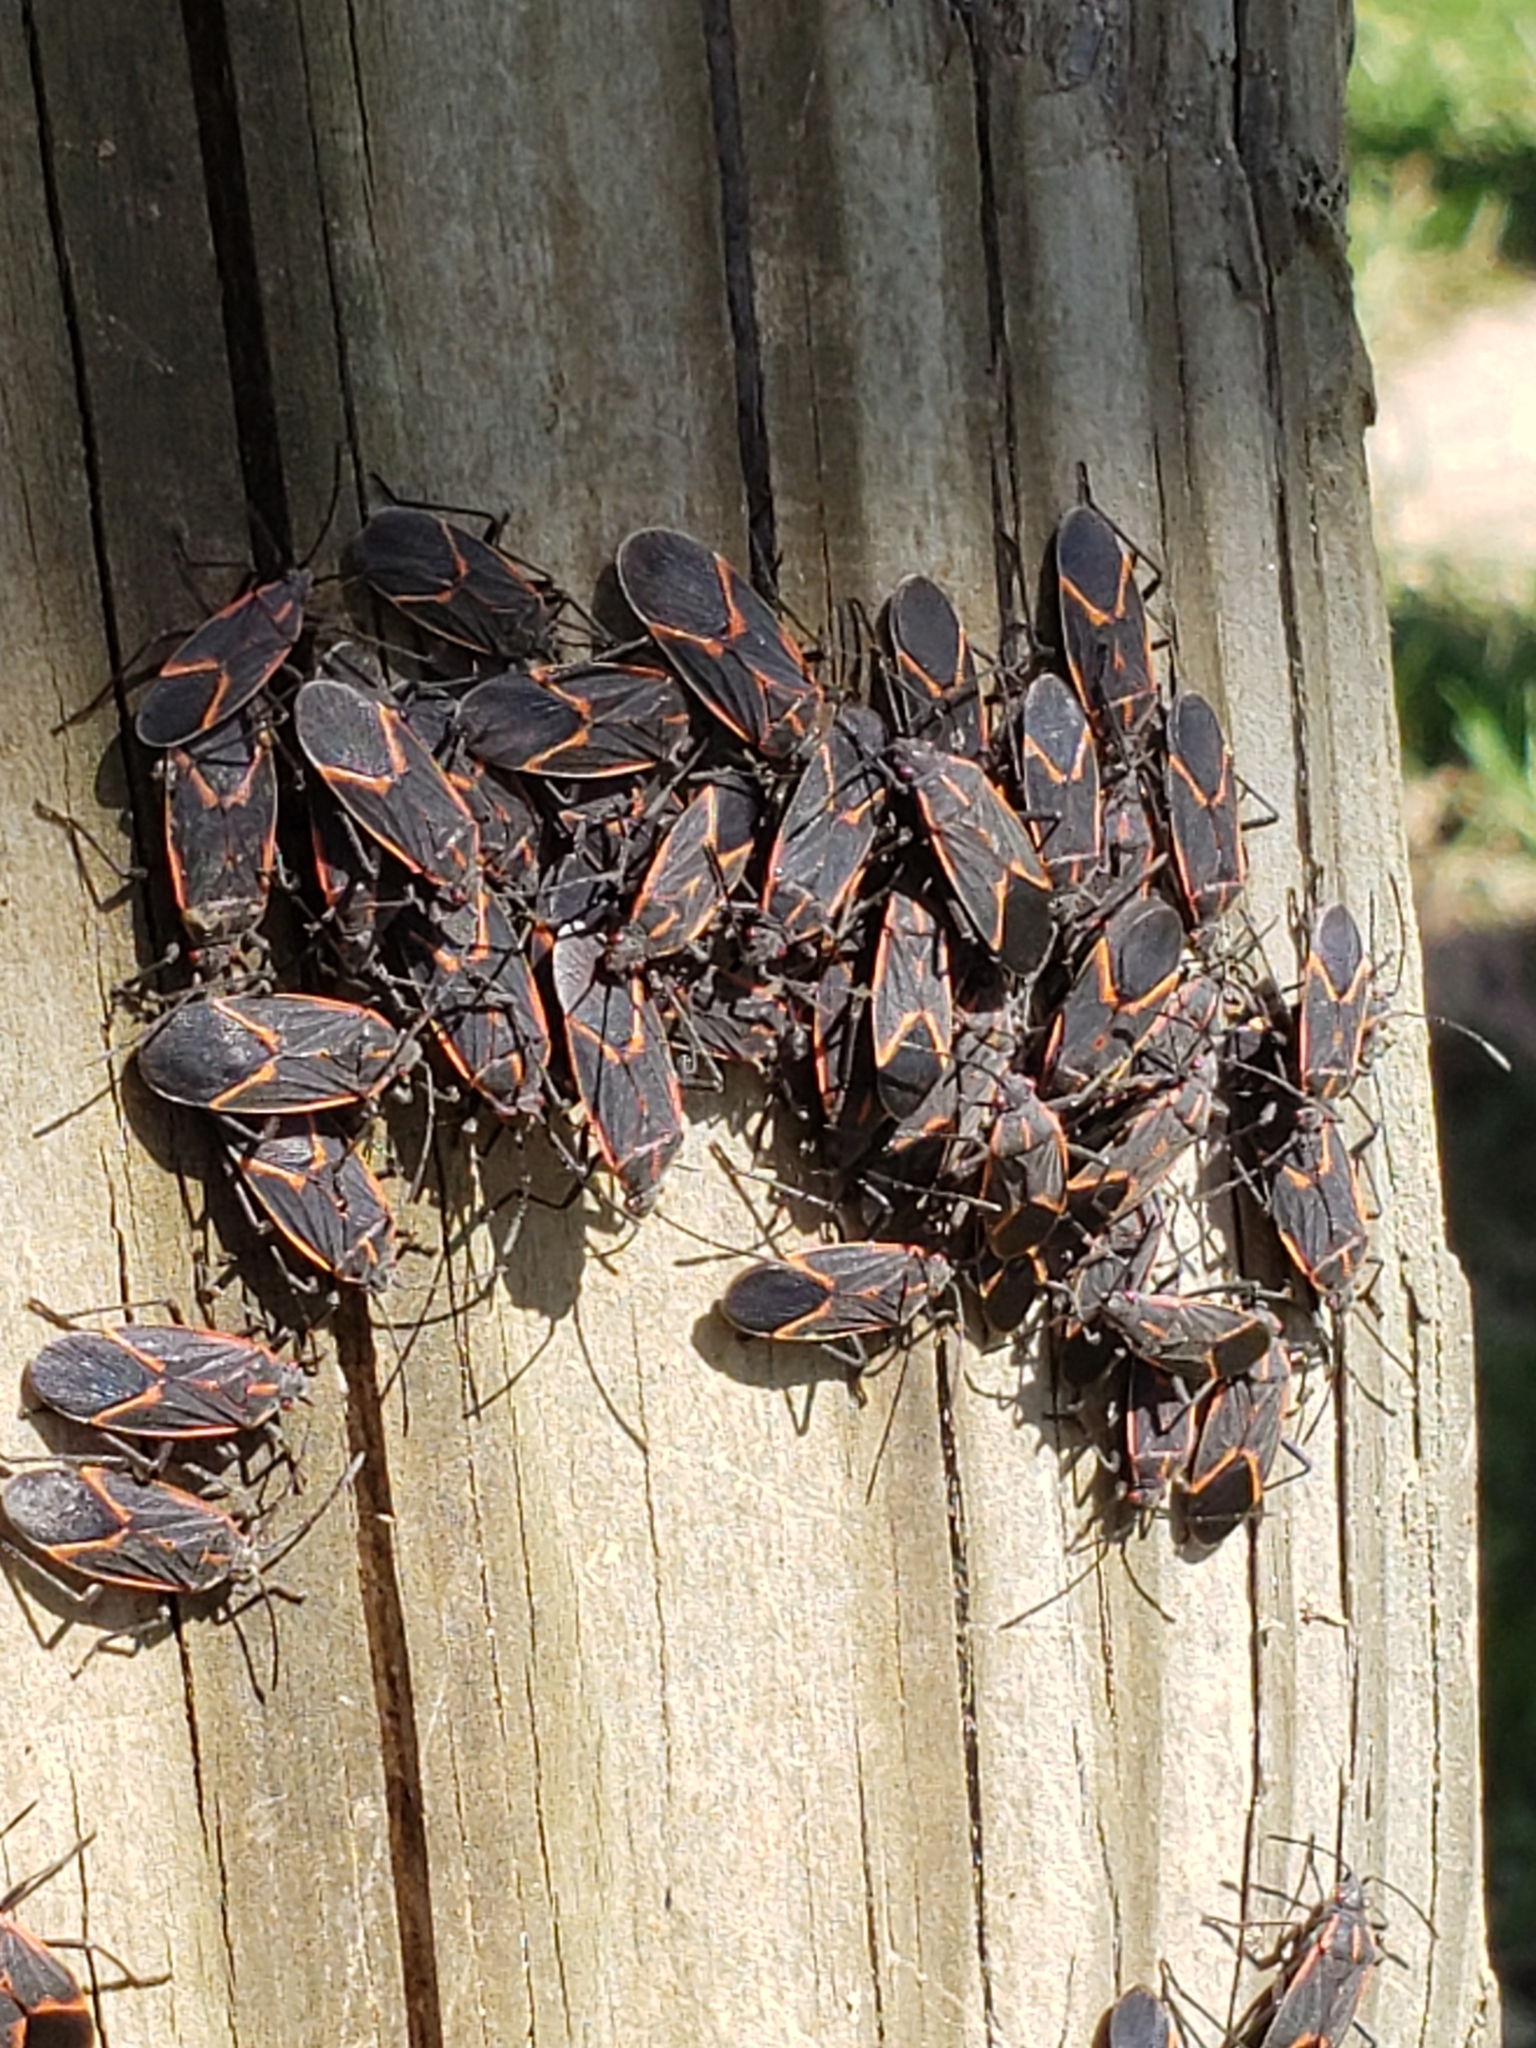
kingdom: Animalia
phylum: Arthropoda
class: Insecta
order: Hemiptera
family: Rhopalidae
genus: Boisea
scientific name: Boisea trivittata
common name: Boxelder bug
